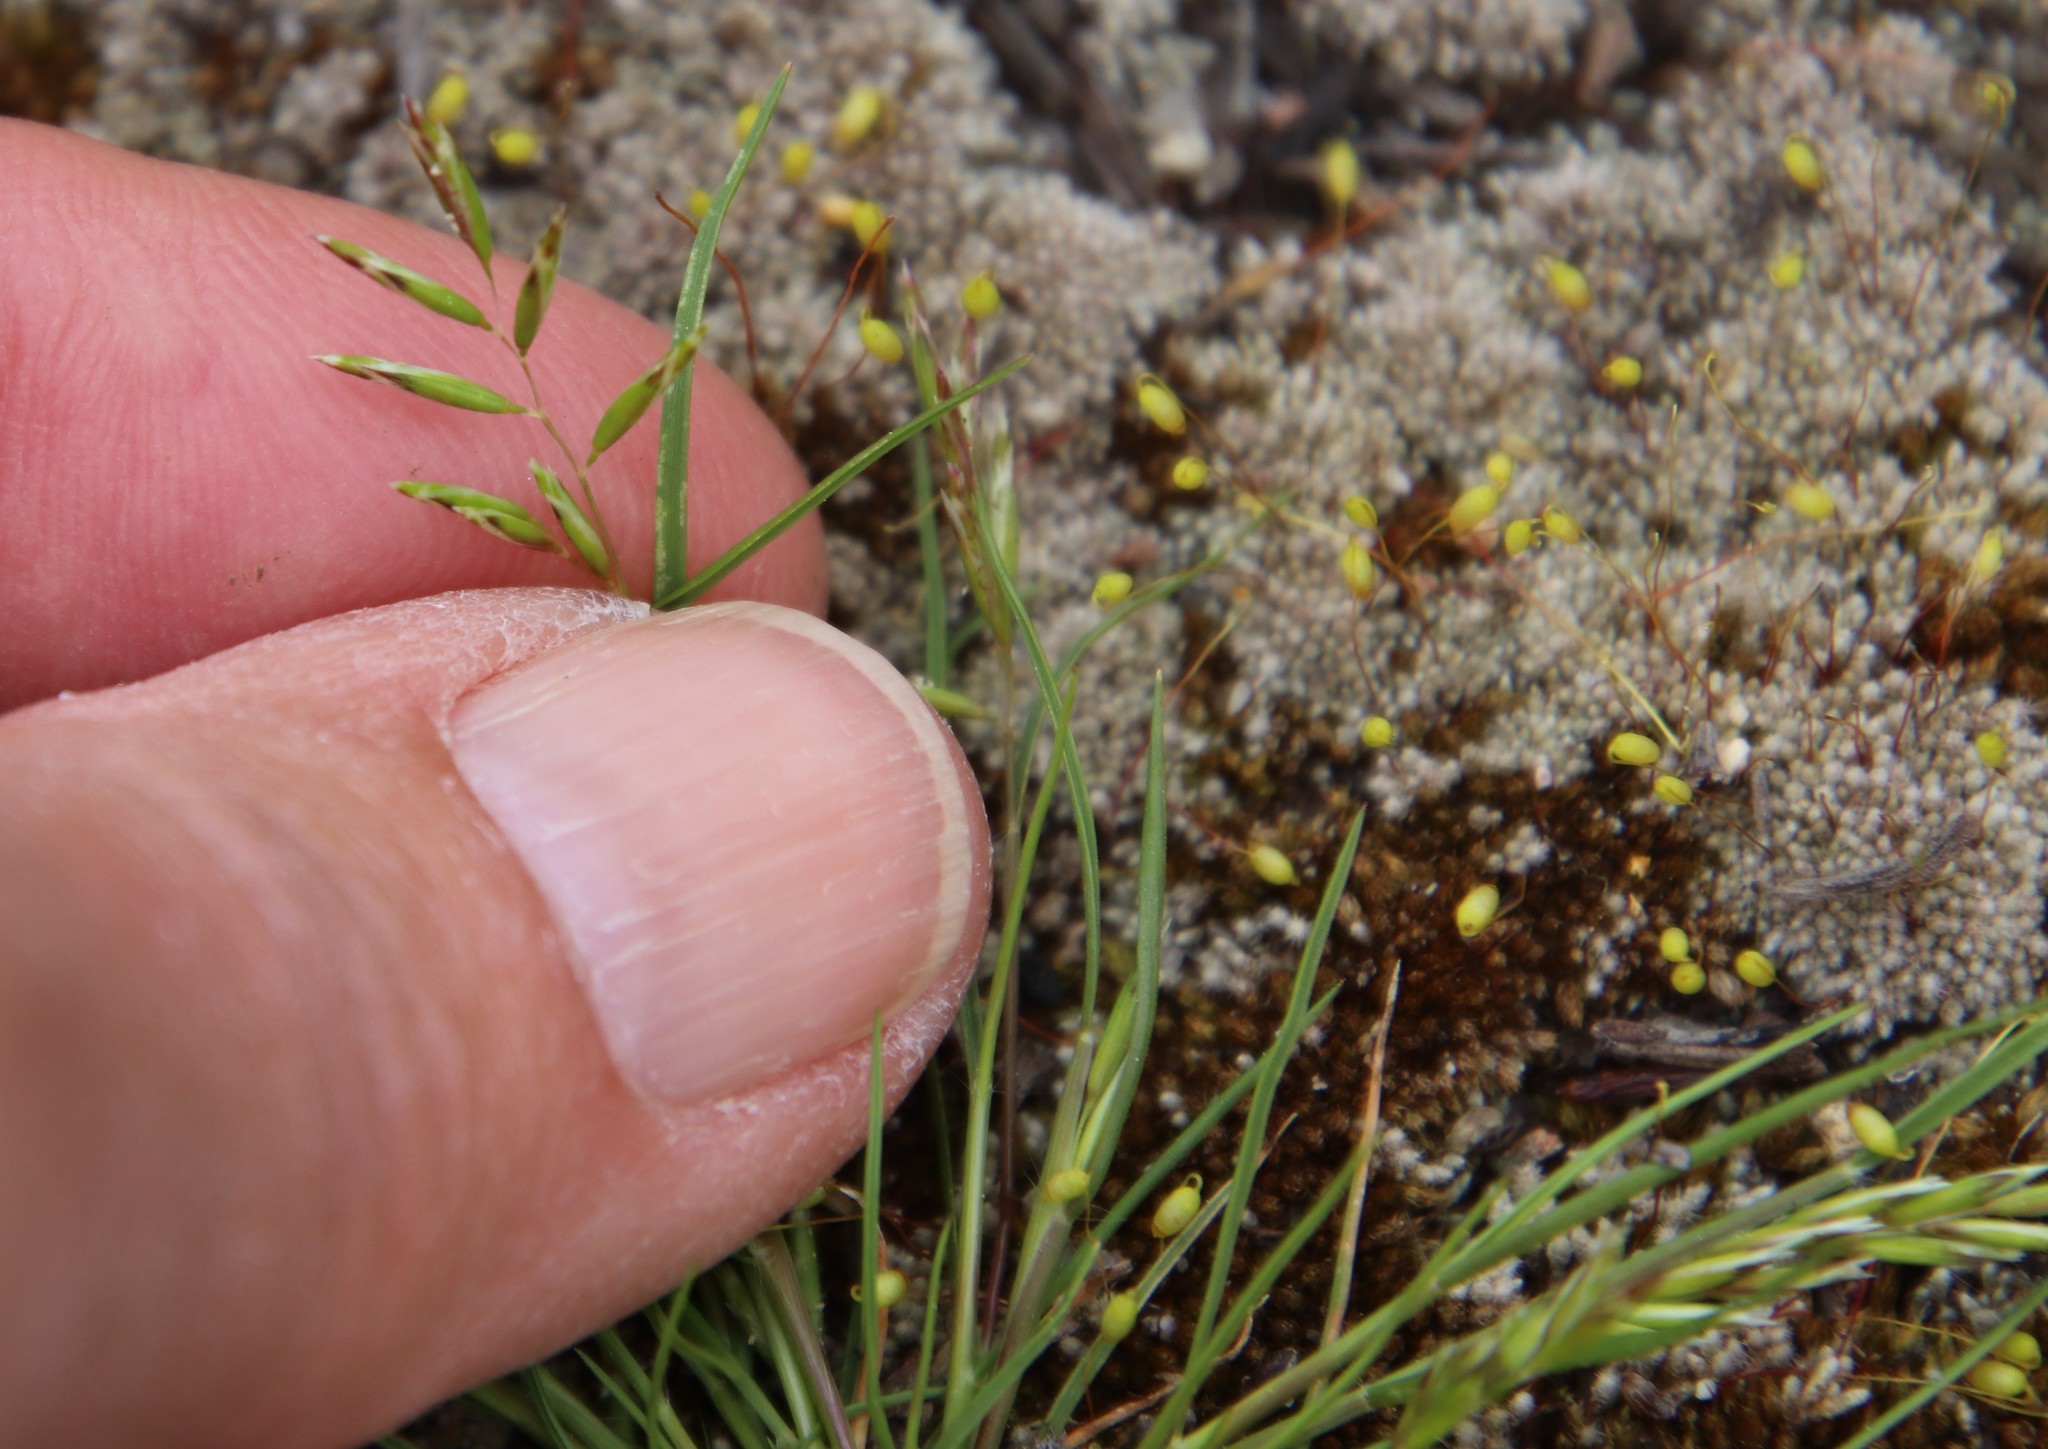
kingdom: Plantae
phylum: Tracheophyta
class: Liliopsida
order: Poales
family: Poaceae
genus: Schismus
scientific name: Schismus barbatus
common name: Kelch-grass
